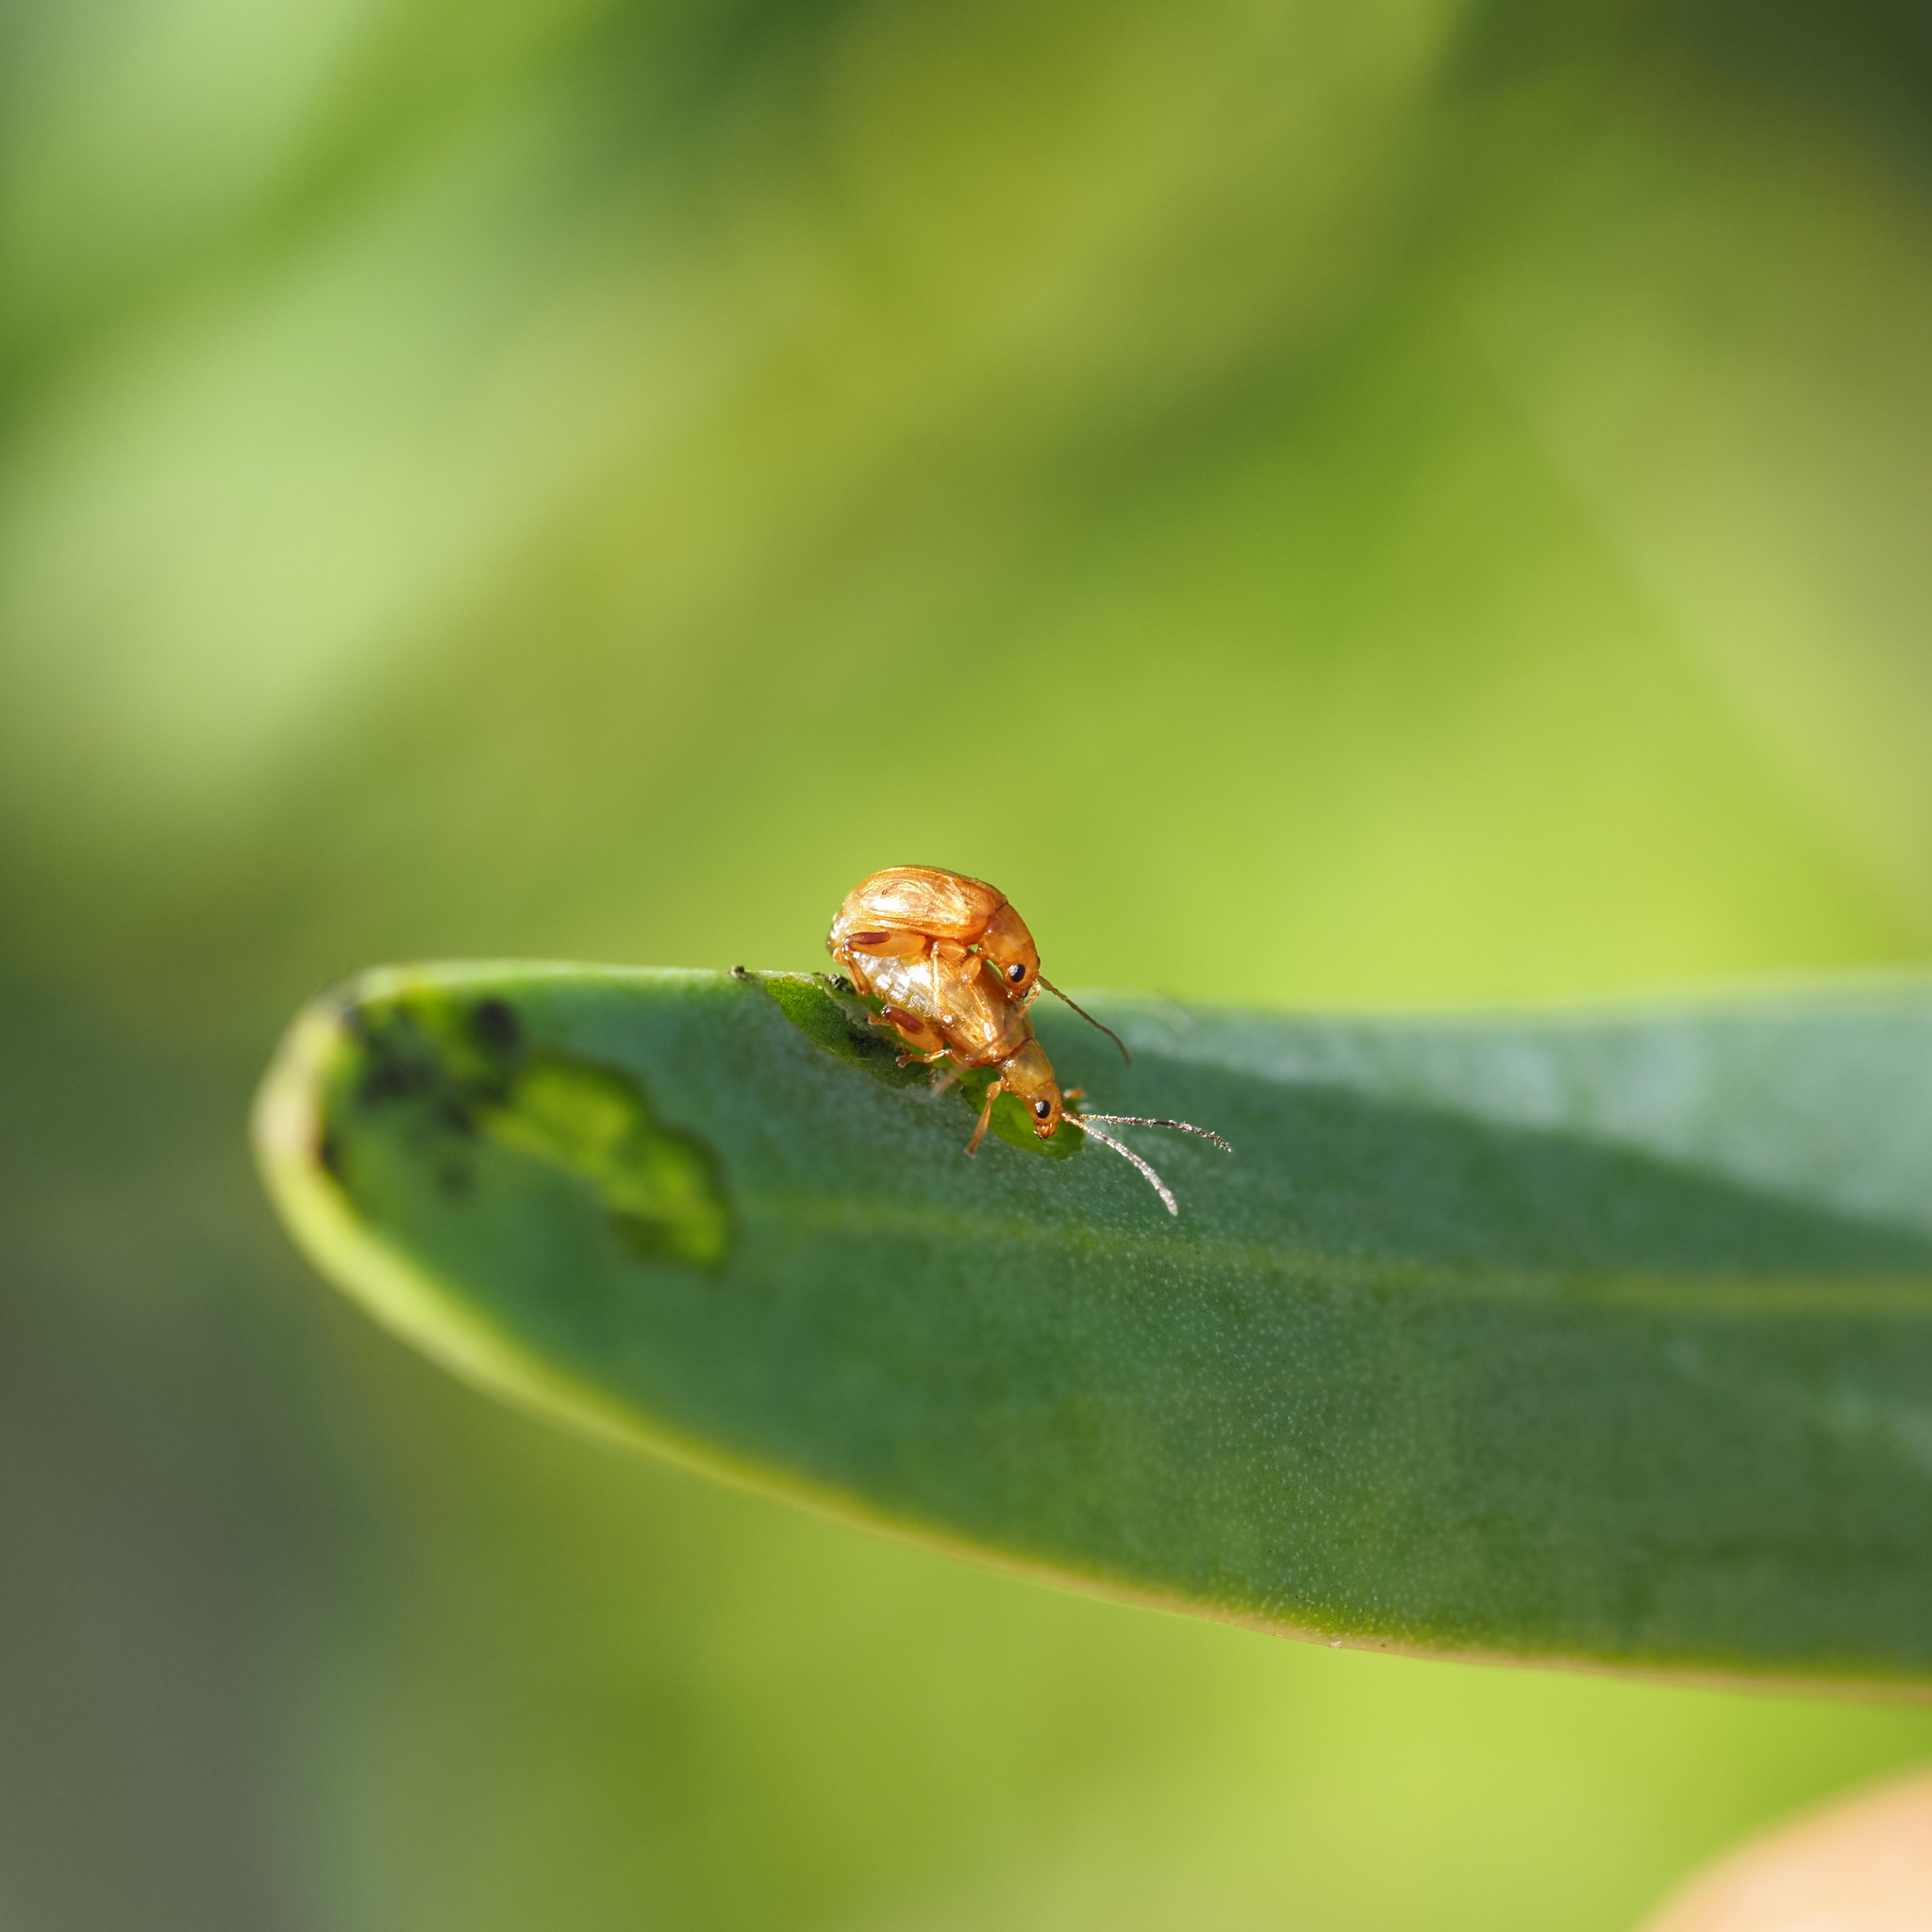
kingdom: Animalia
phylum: Arthropoda
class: Insecta
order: Coleoptera
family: Chrysomelidae
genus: Longitarsus
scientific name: Longitarsus kleiniiperda
